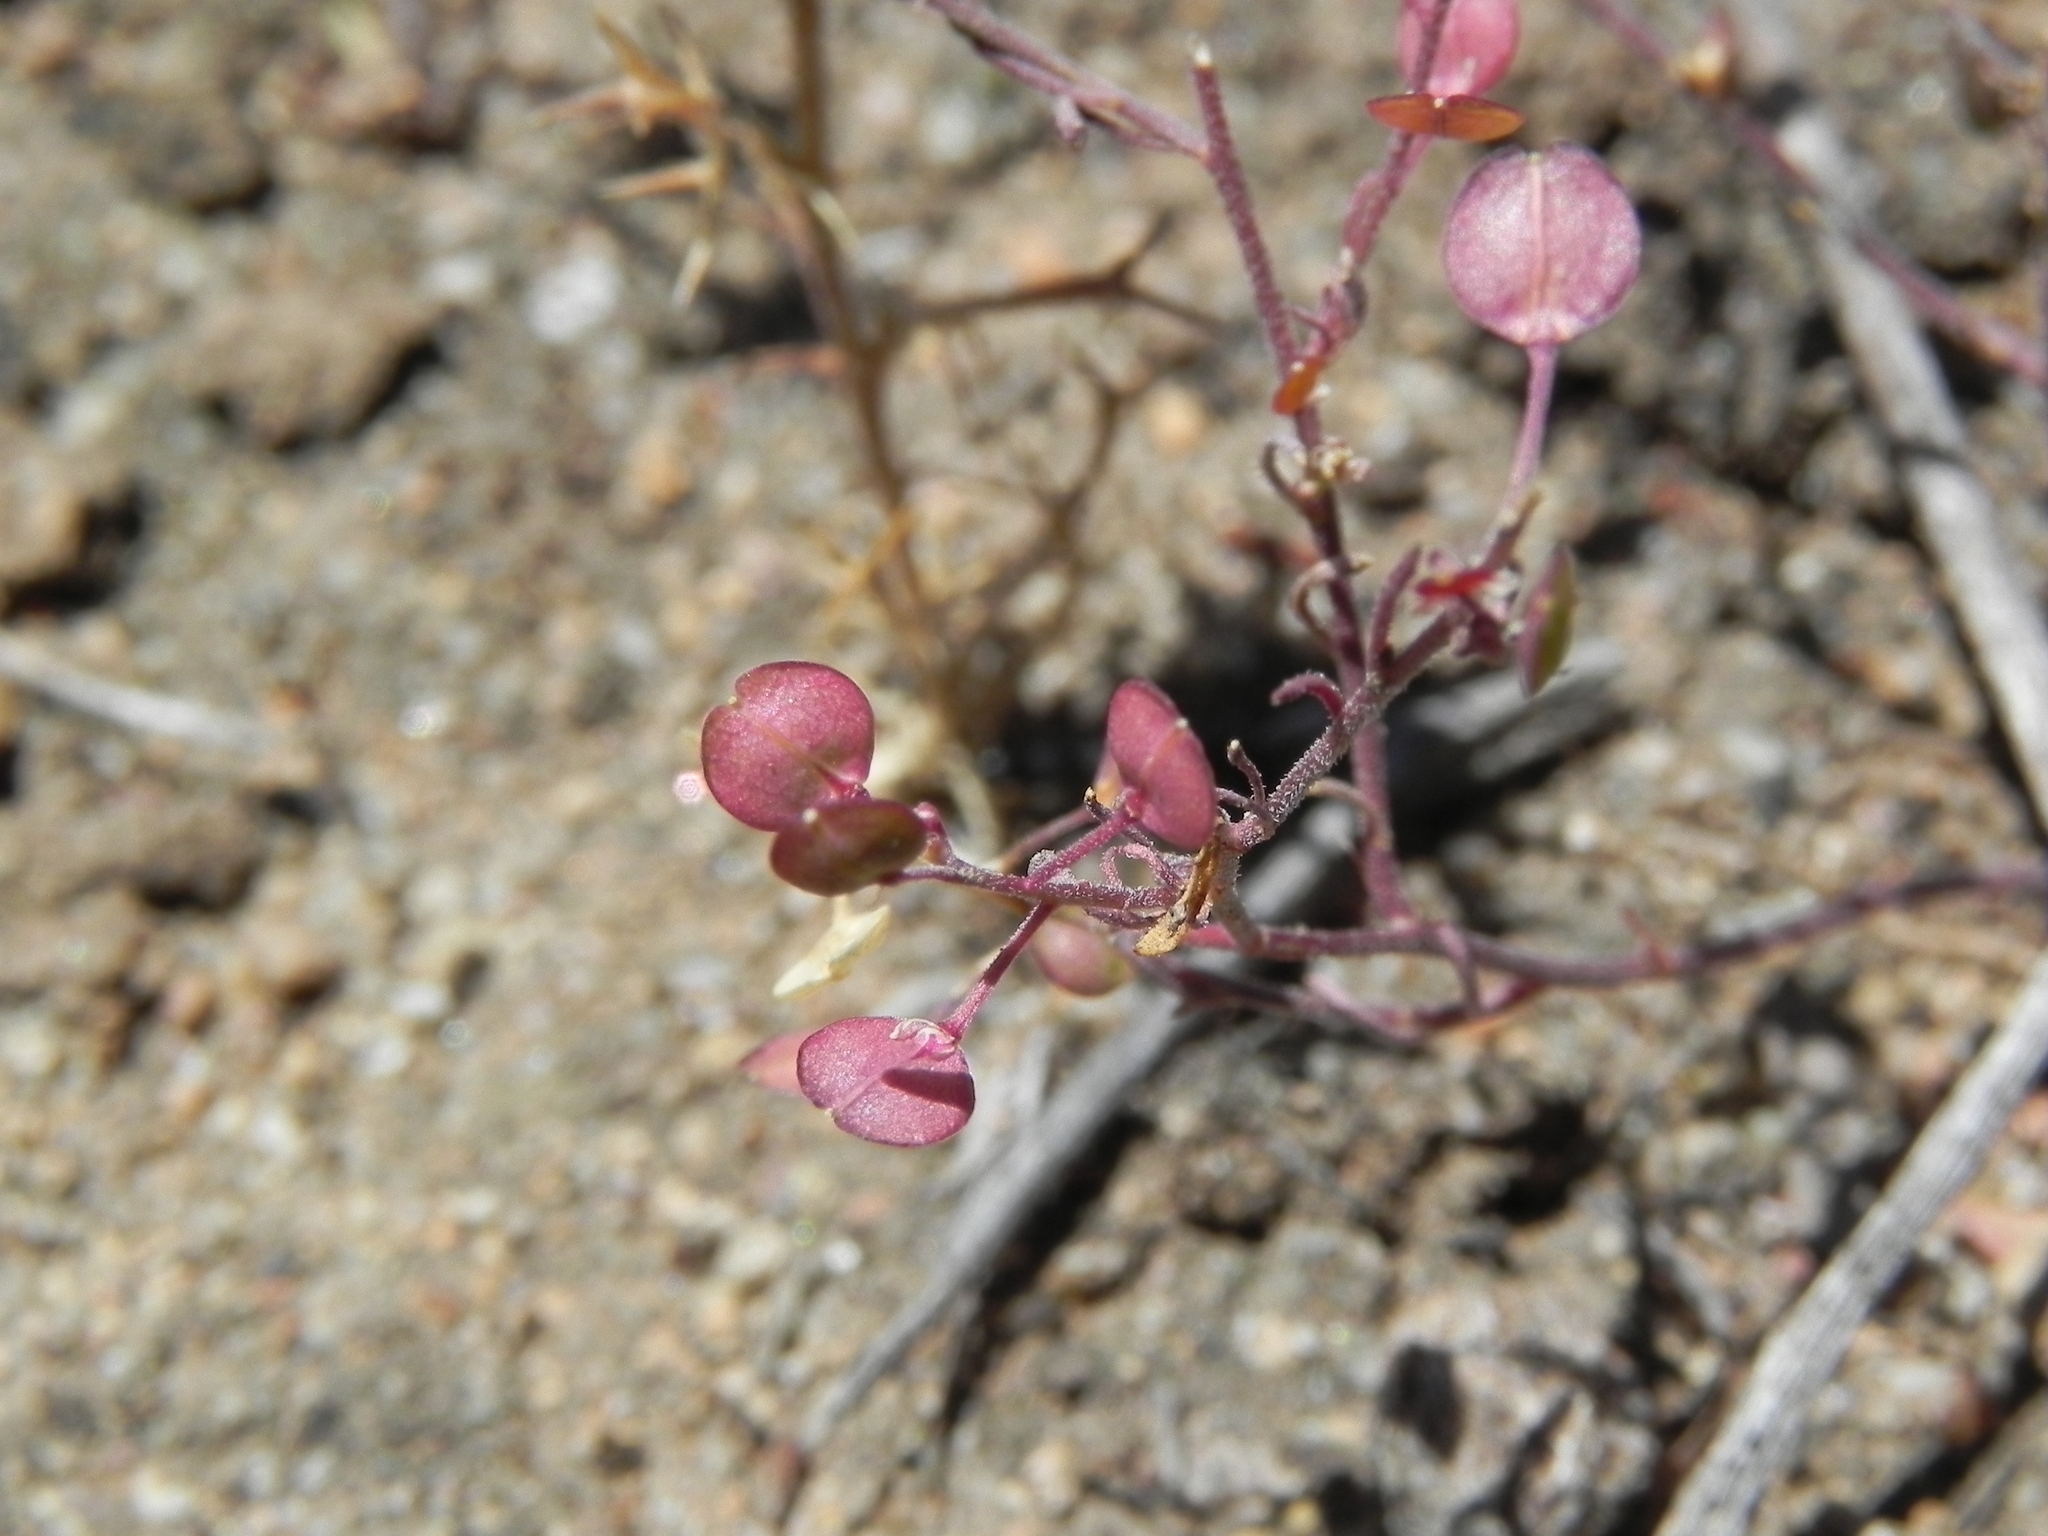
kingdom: Plantae
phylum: Tracheophyta
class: Magnoliopsida
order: Brassicales
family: Brassicaceae
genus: Lepidium
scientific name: Lepidium nitidum
